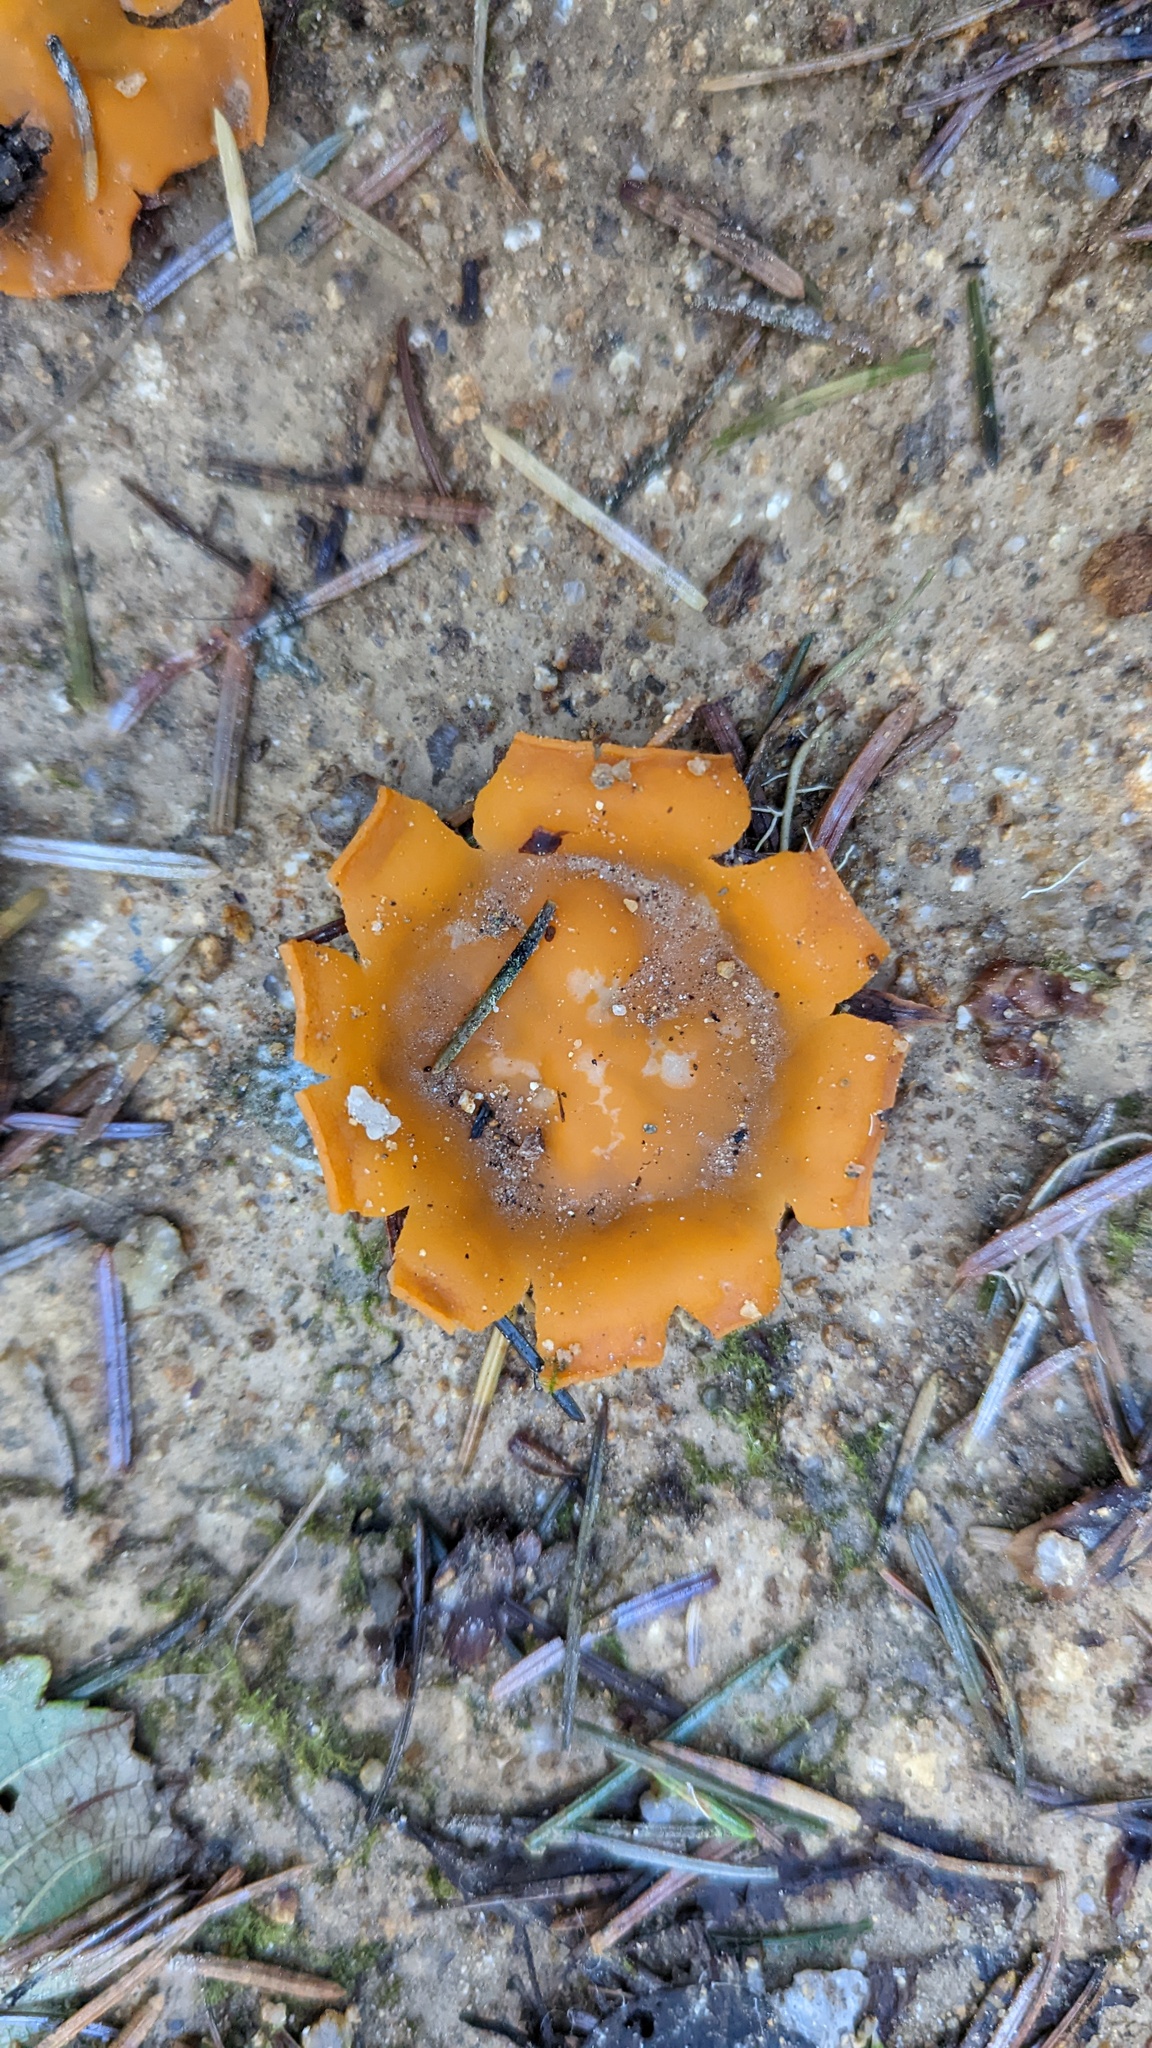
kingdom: Fungi
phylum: Ascomycota
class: Pezizomycetes
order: Pezizales
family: Pyronemataceae
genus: Aleuria
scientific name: Aleuria aurantia
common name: Orange peel fungus
